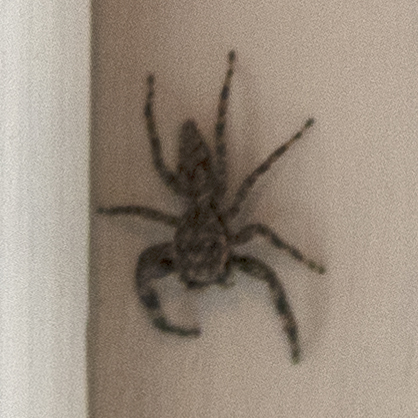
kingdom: Animalia
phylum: Arthropoda
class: Arachnida
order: Araneae
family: Salticidae
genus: Platycryptus
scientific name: Platycryptus undatus
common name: Tan jumping spider
